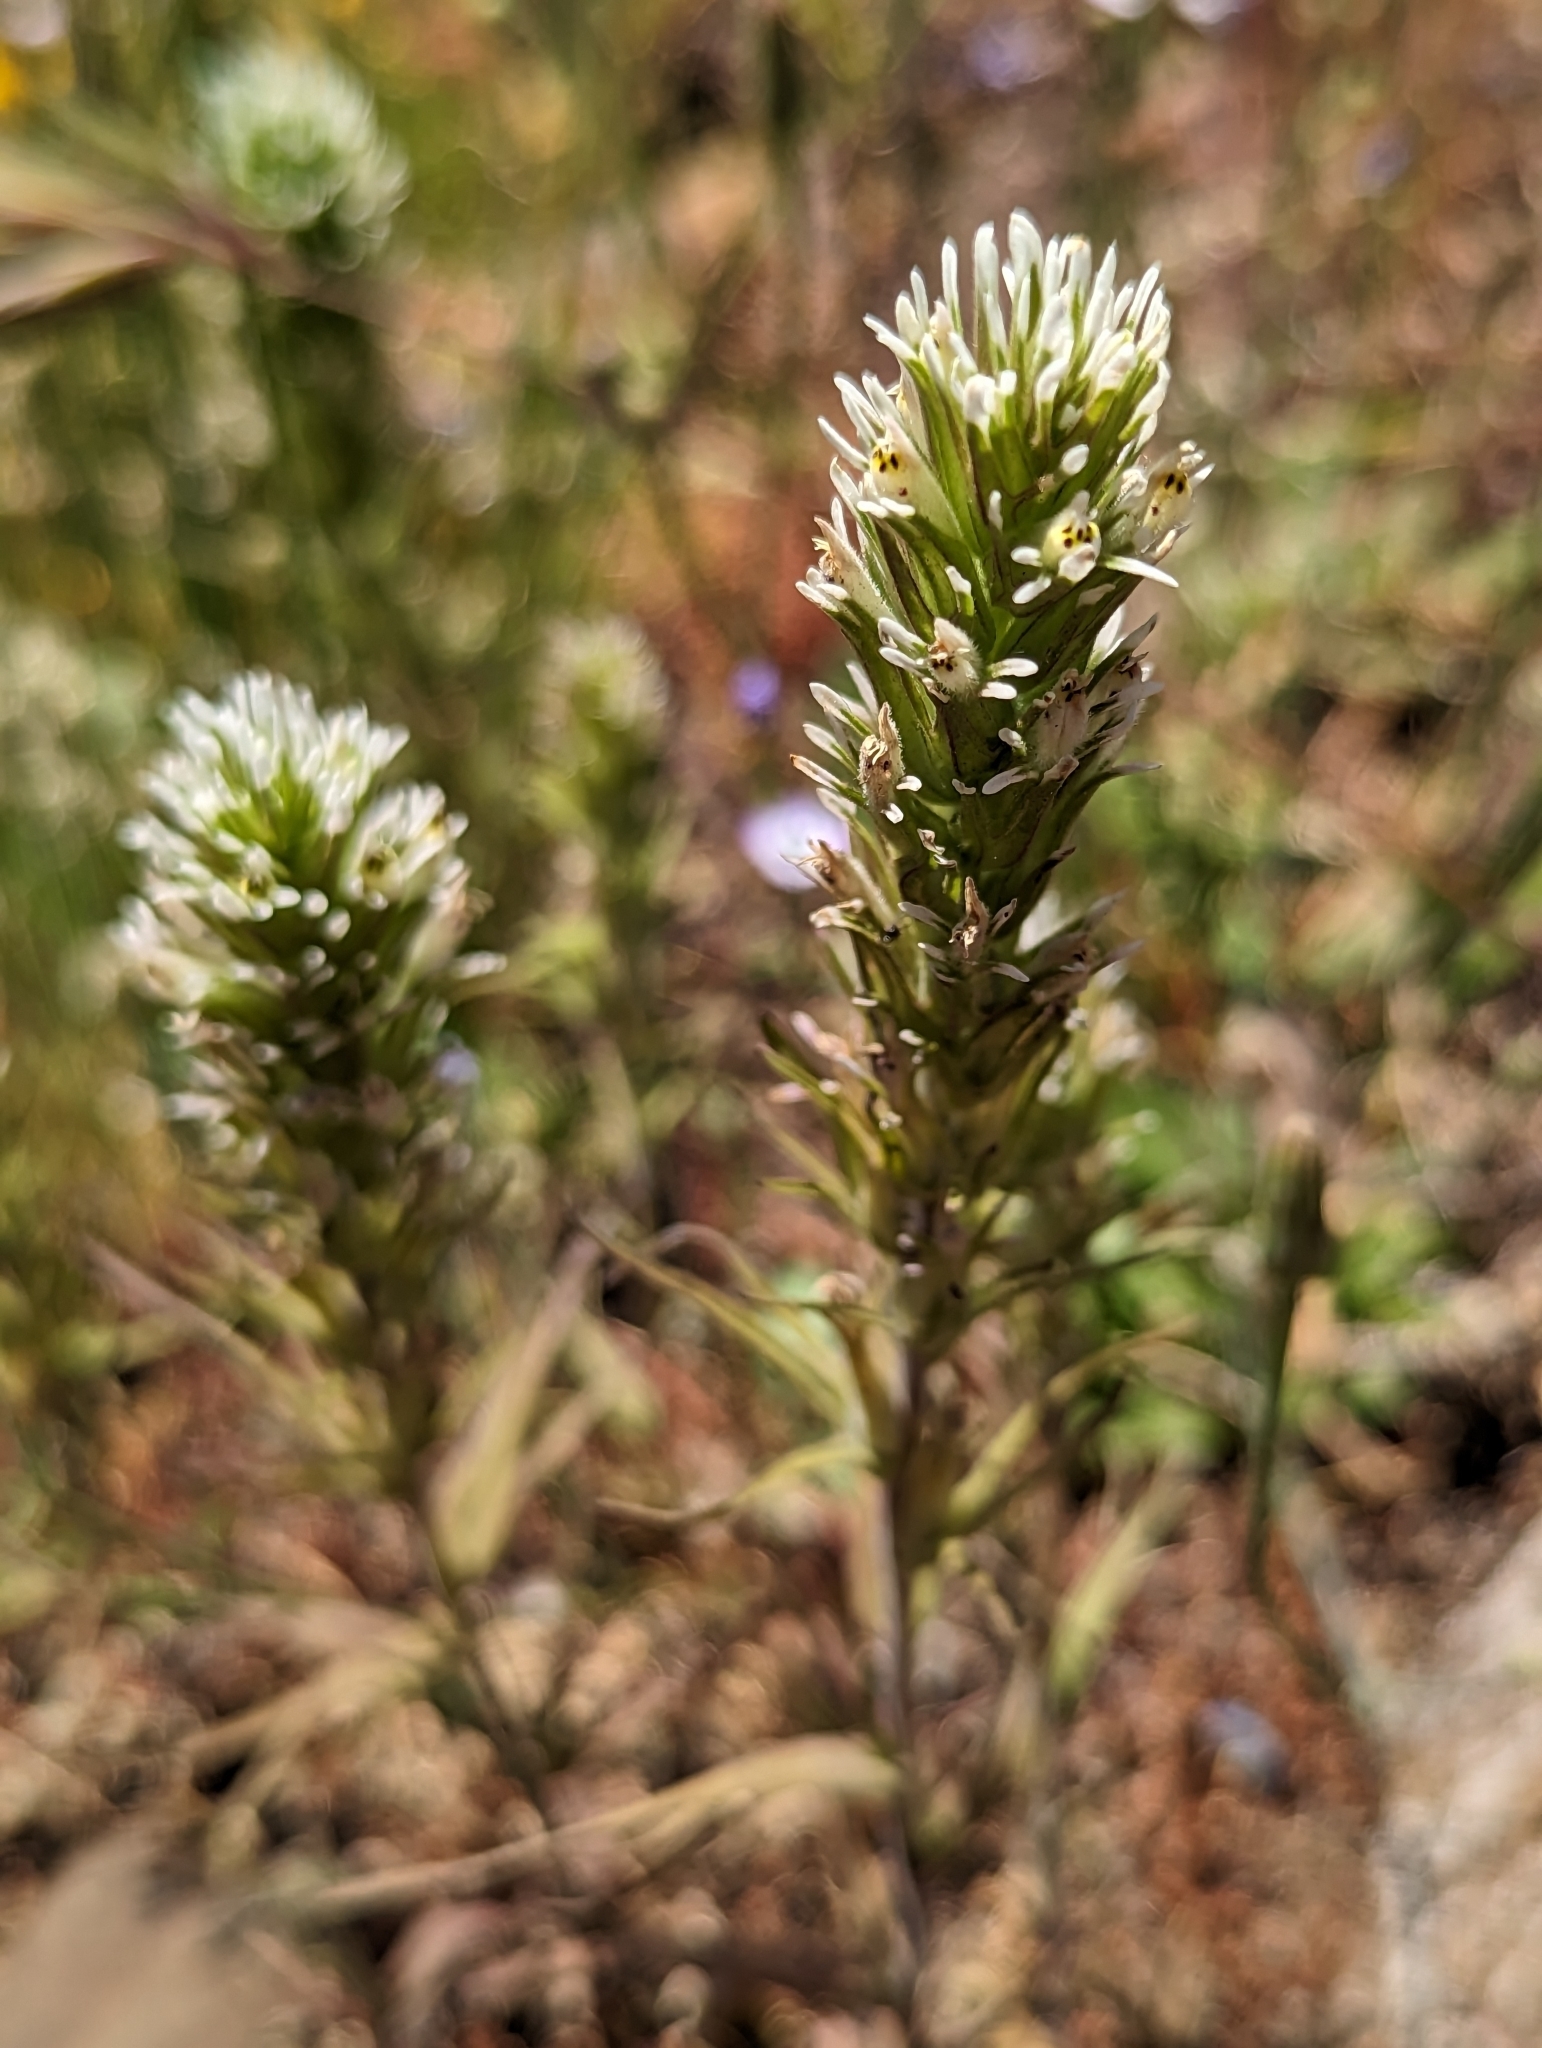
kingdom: Plantae
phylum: Tracheophyta
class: Magnoliopsida
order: Lamiales
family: Orobanchaceae
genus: Castilleja
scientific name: Castilleja attenuata
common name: Valley tassels
